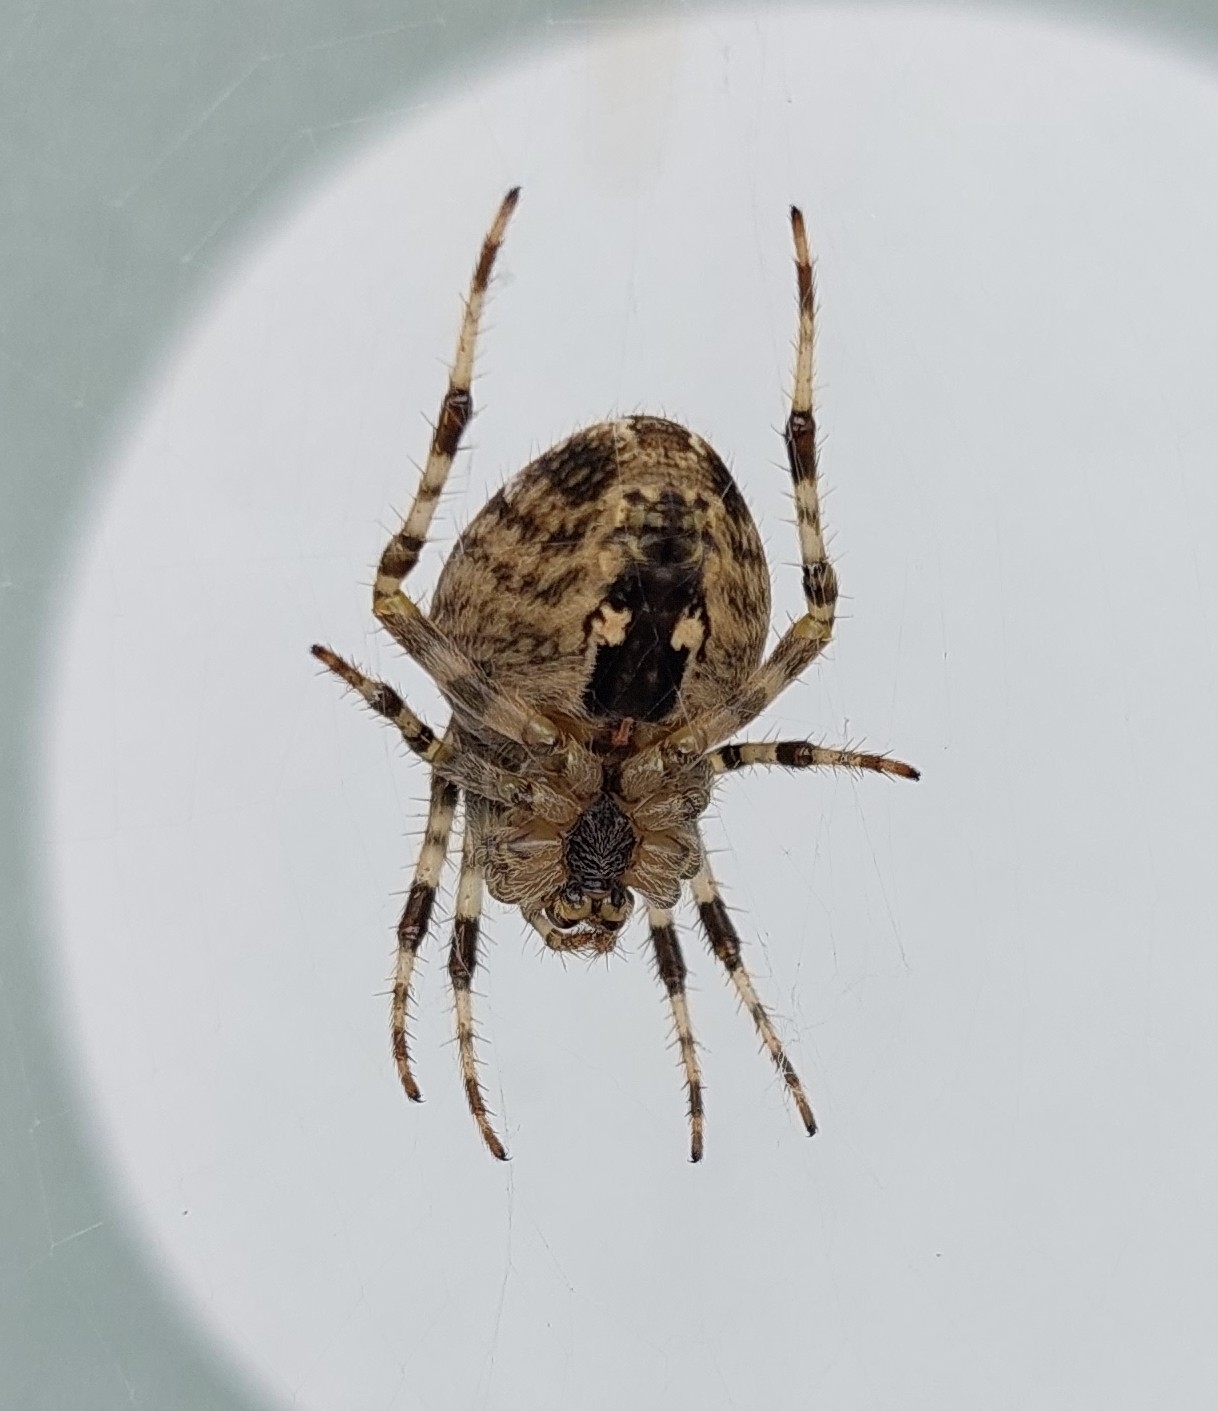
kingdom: Animalia
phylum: Arthropoda
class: Arachnida
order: Araneae
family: Araneidae
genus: Araneus
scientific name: Araneus diadematus
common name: Cross orbweaver
